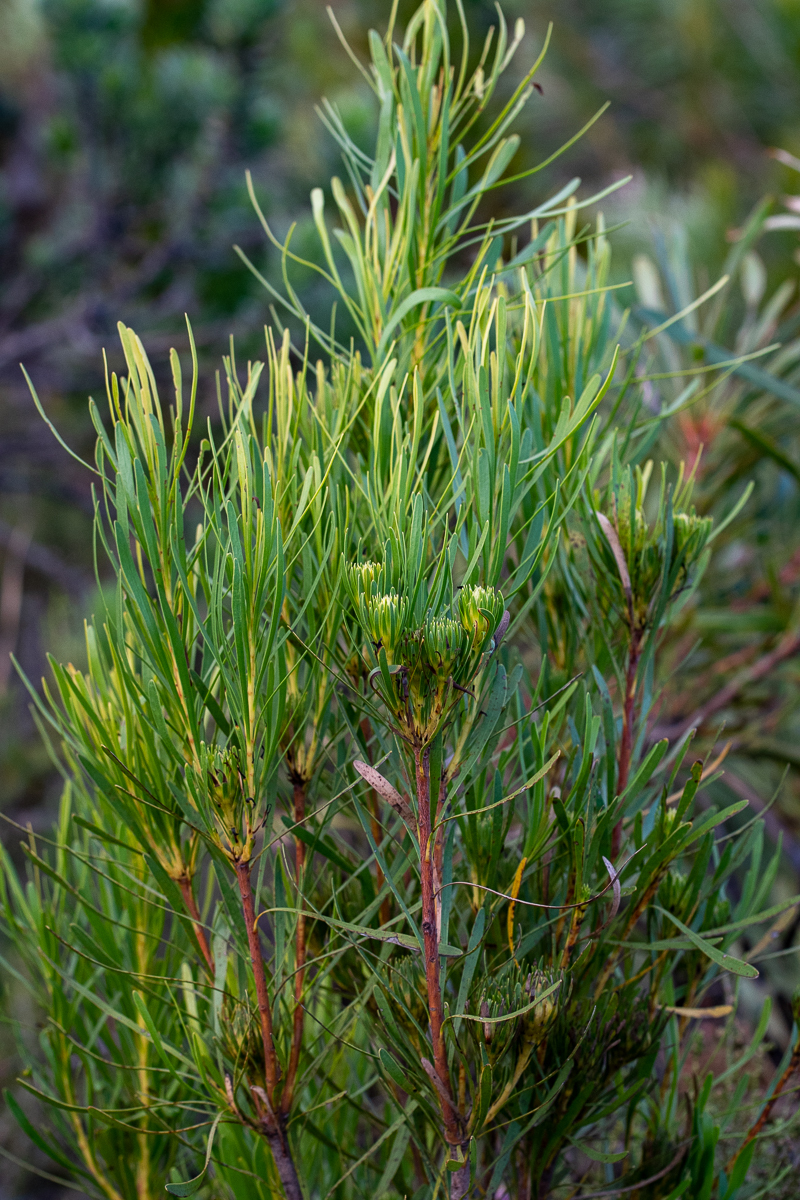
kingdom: Plantae
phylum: Tracheophyta
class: Magnoliopsida
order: Proteales
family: Proteaceae
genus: Aulax
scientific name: Aulax
